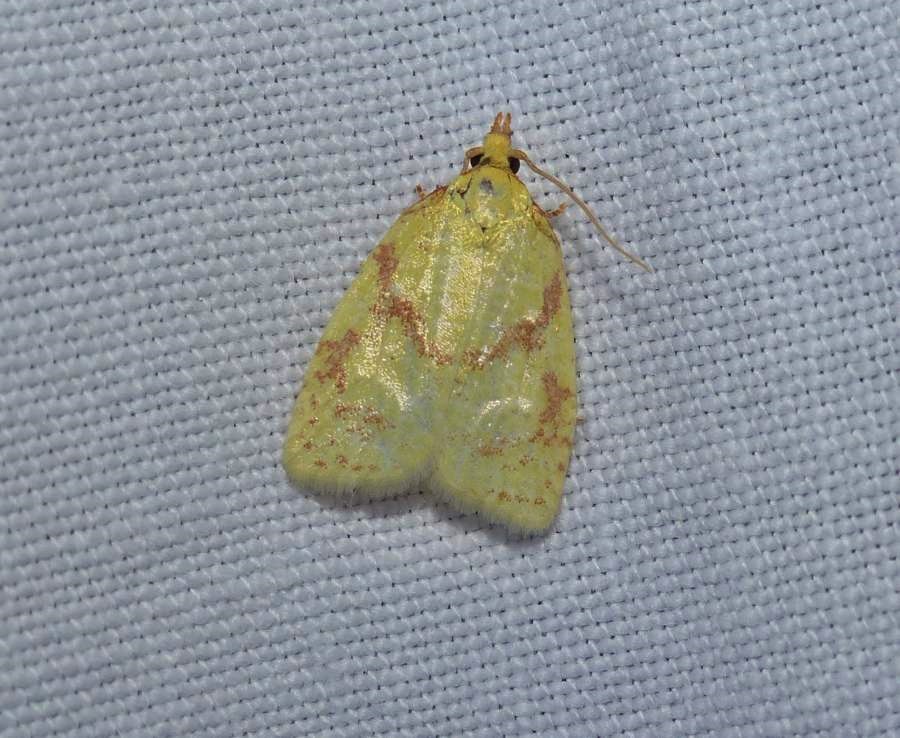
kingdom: Animalia
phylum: Arthropoda
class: Insecta
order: Lepidoptera
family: Tortricidae
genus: Cenopis
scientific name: Cenopis pettitana
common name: Maple-basswood leafroller moth
